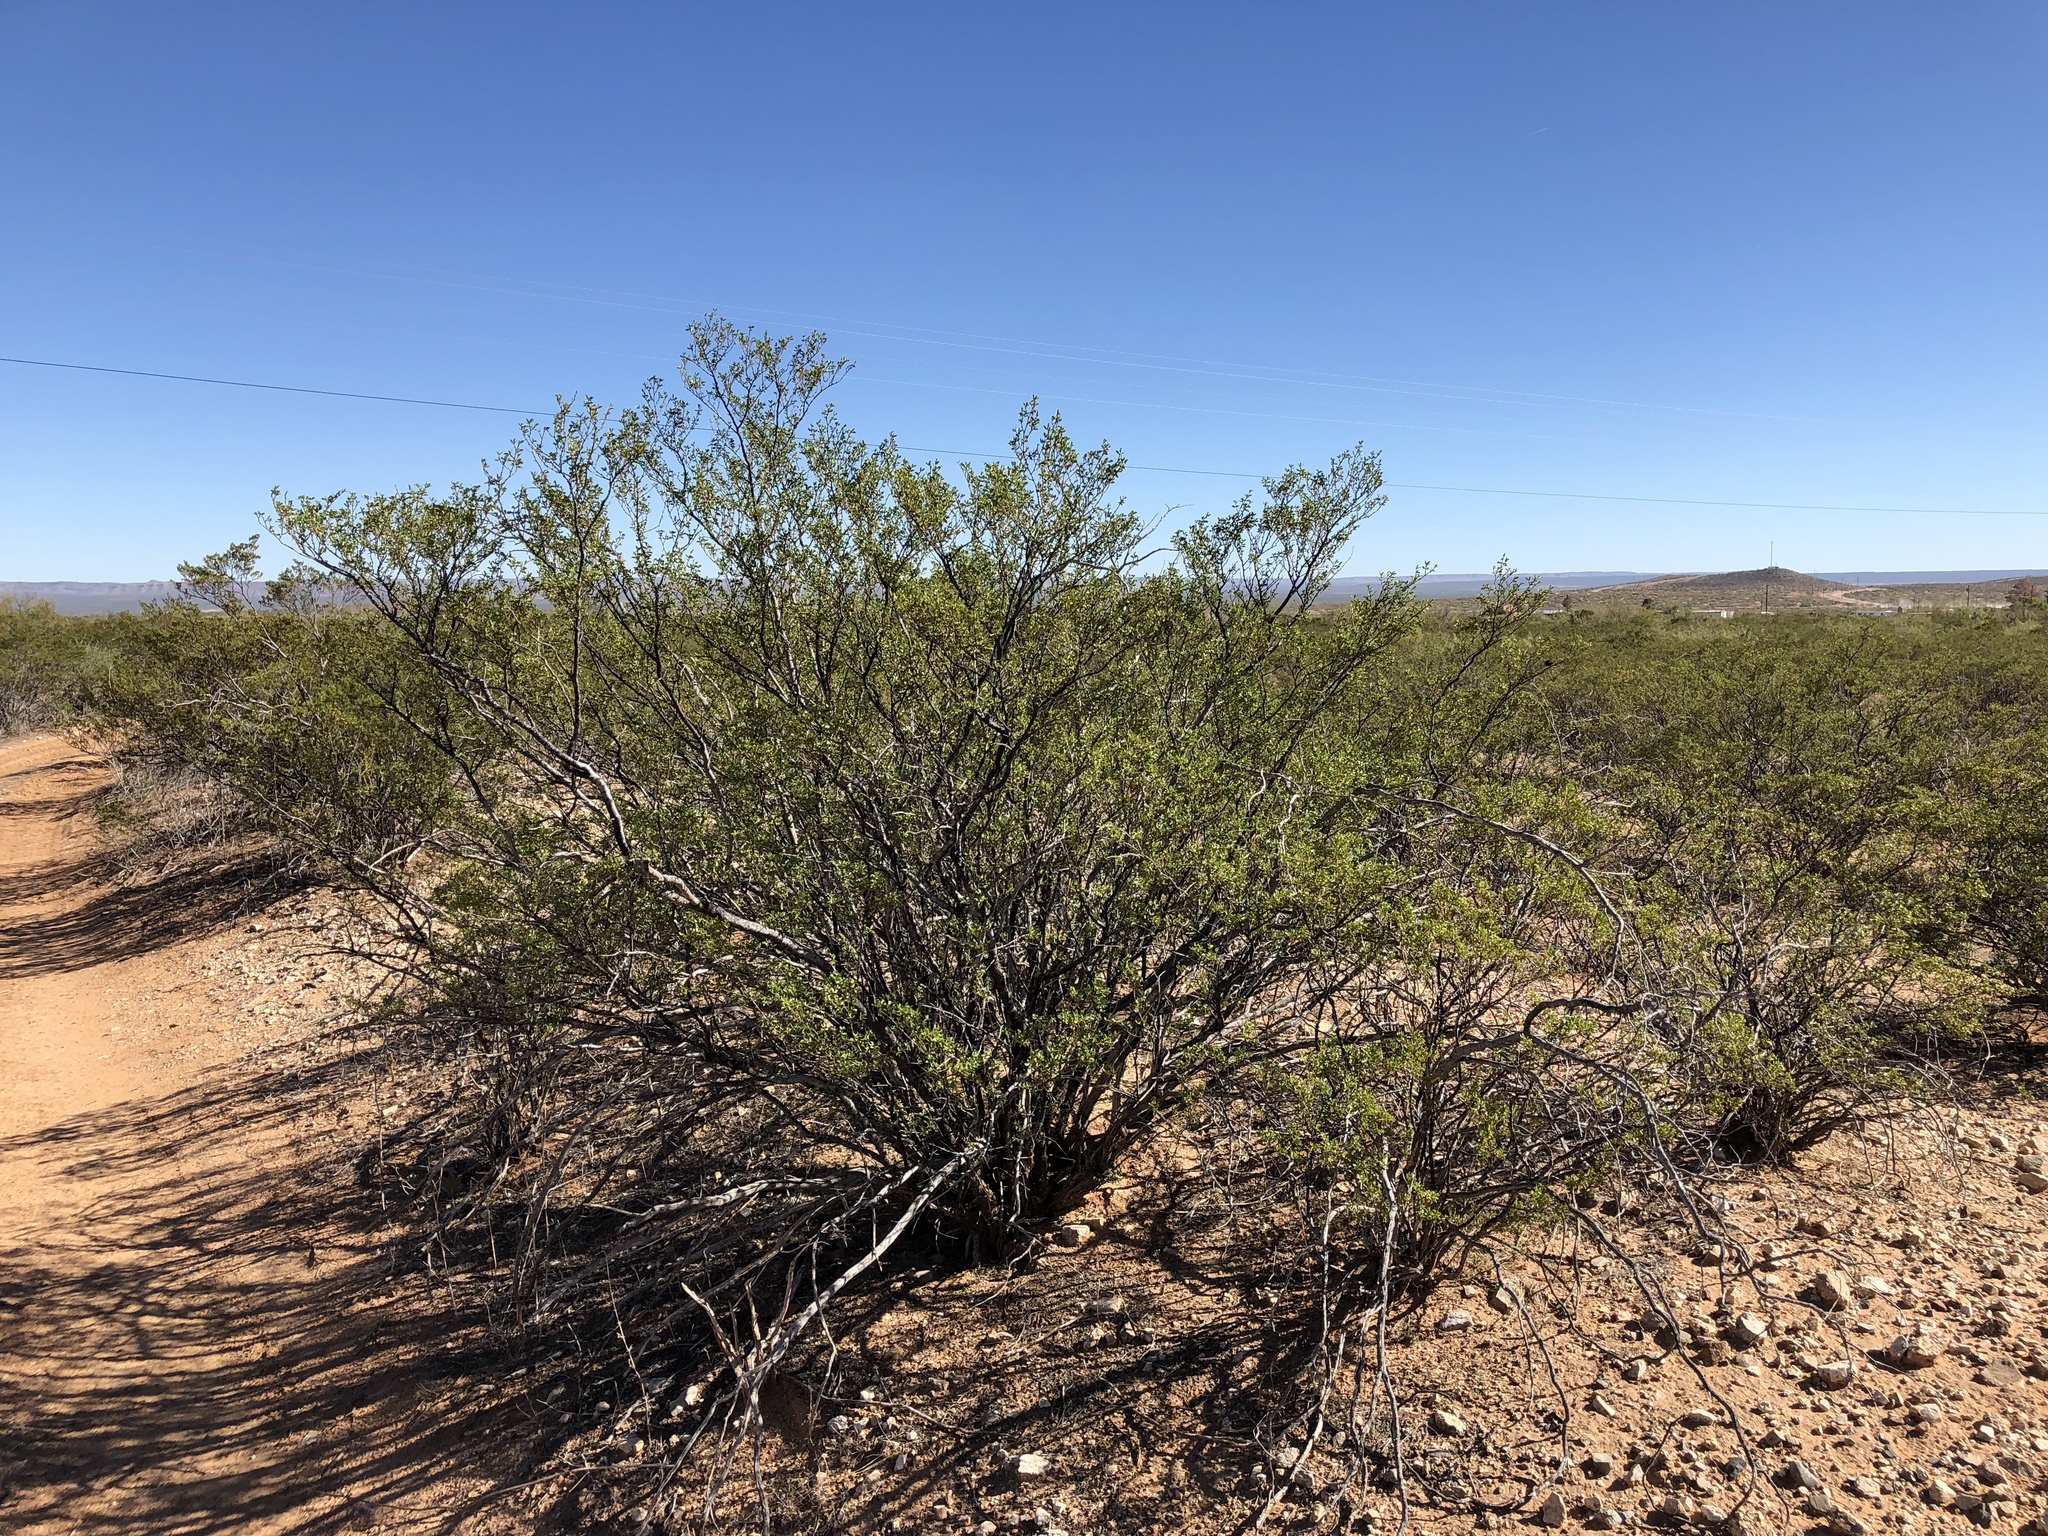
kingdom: Plantae
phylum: Tracheophyta
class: Magnoliopsida
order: Zygophyllales
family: Zygophyllaceae
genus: Larrea
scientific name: Larrea tridentata
